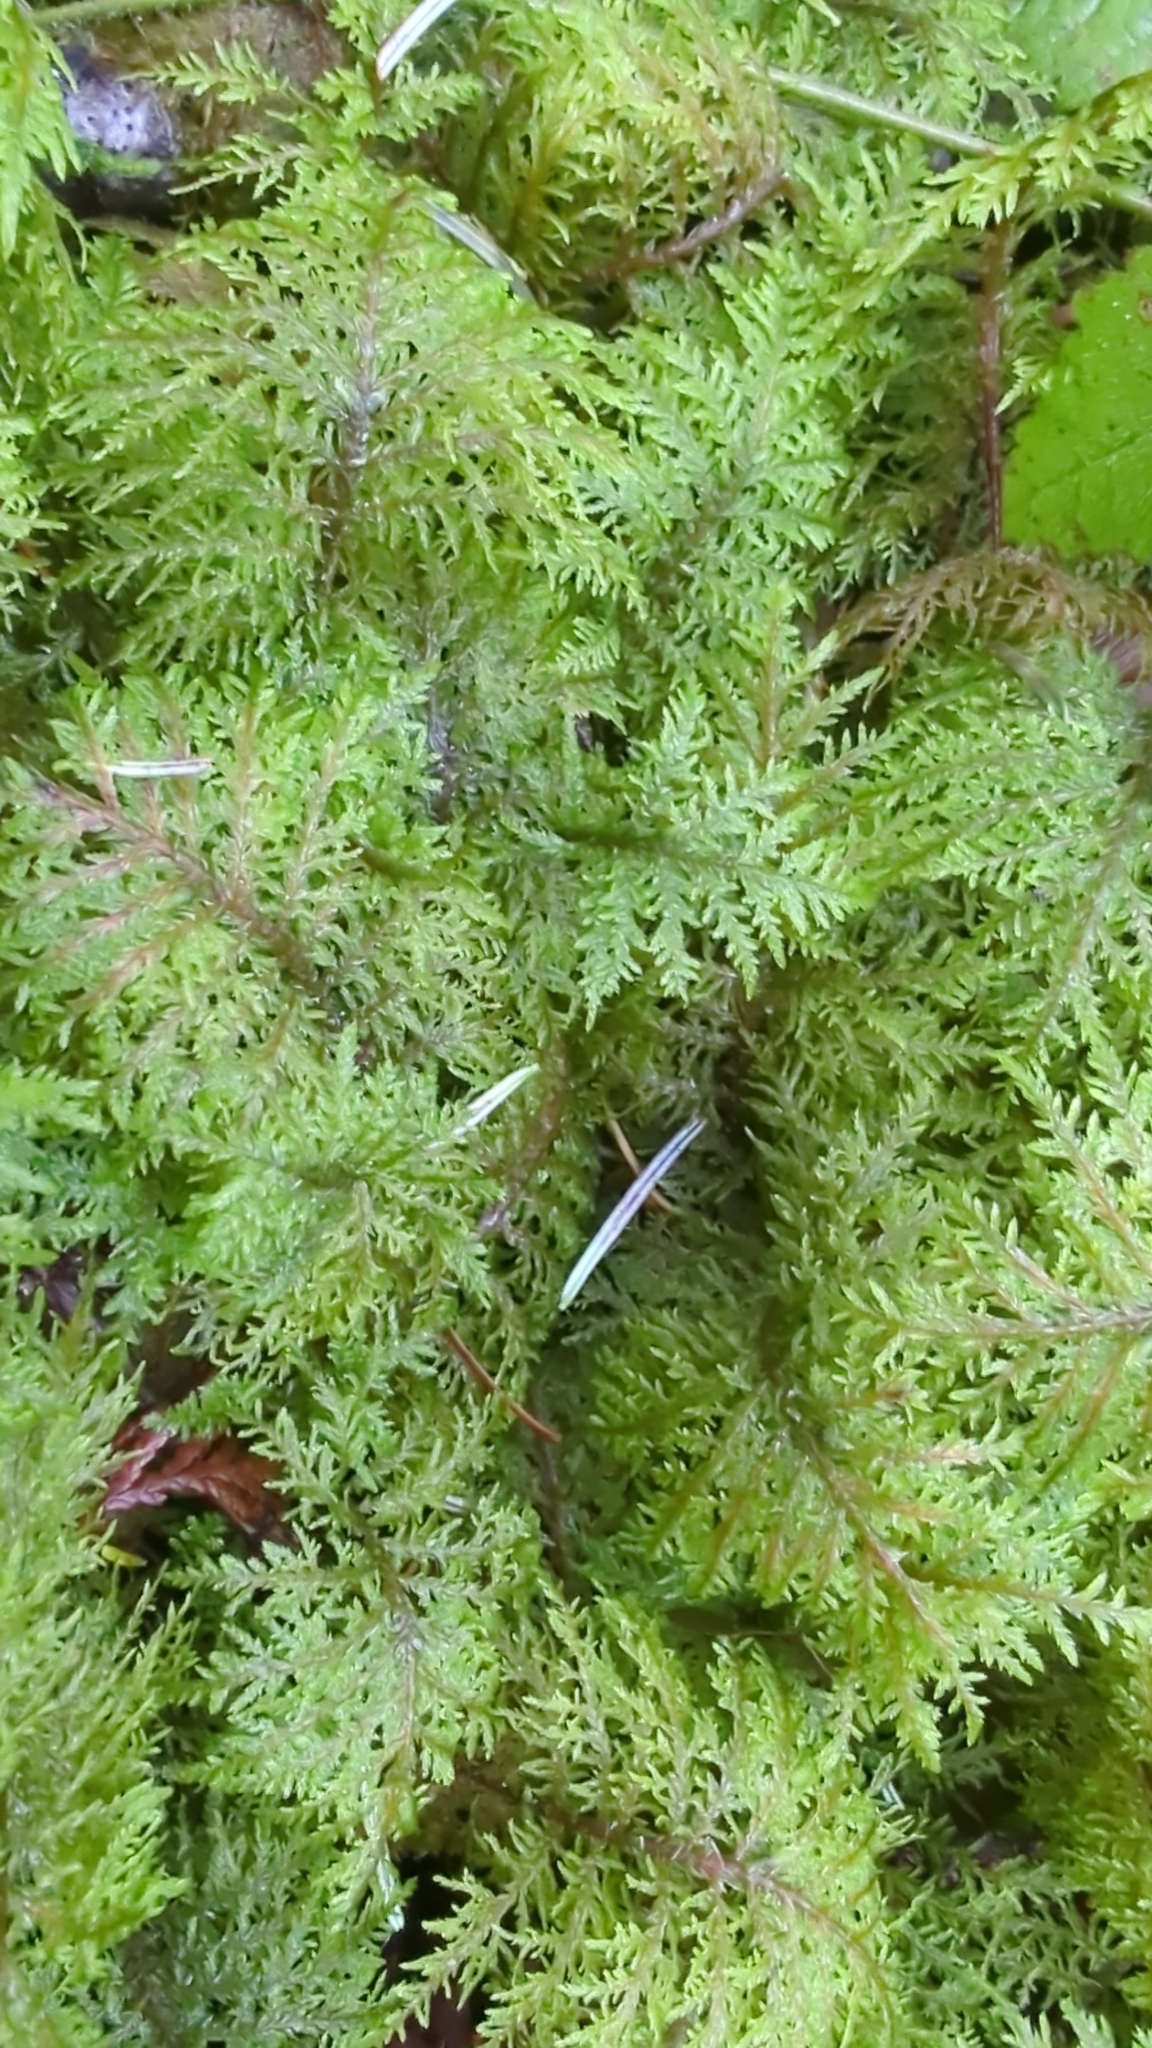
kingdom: Plantae
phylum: Bryophyta
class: Bryopsida
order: Hypnales
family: Hylocomiaceae
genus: Hylocomium
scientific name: Hylocomium splendens
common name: Stairstep moss
